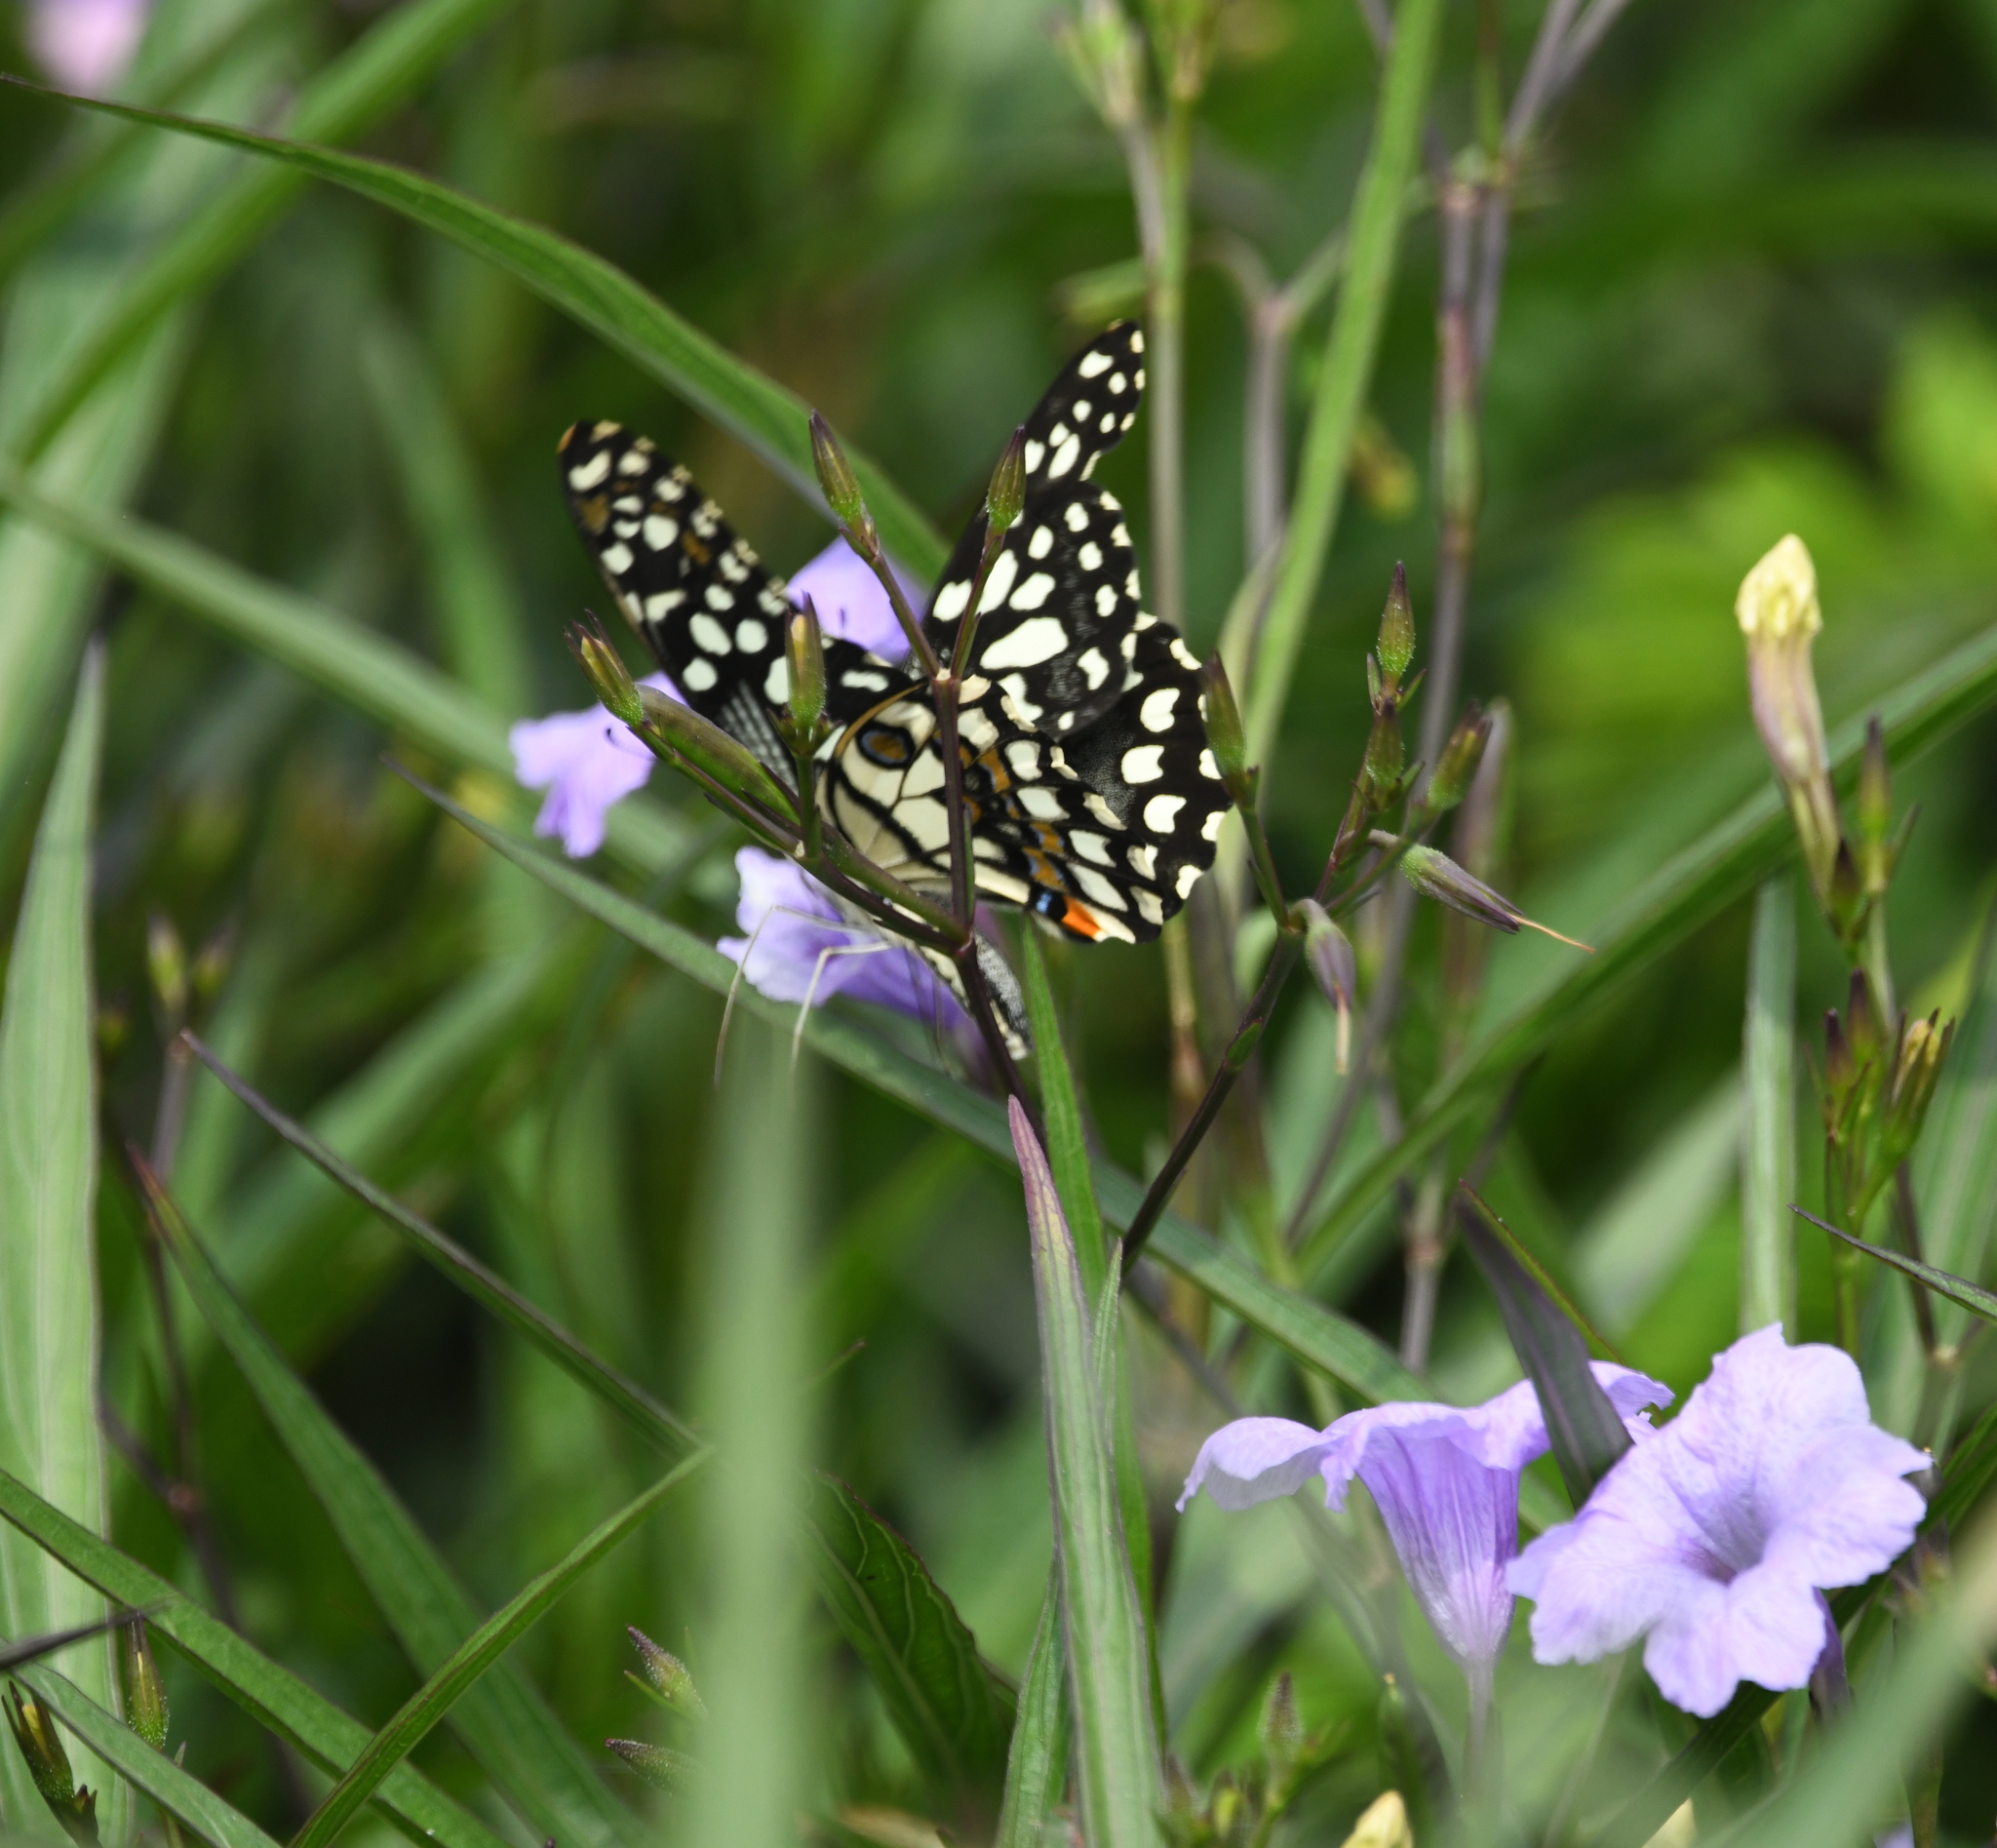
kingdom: Animalia
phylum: Arthropoda
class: Insecta
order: Lepidoptera
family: Papilionidae
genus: Papilio
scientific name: Papilio demoleus
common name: Lime butterfly
